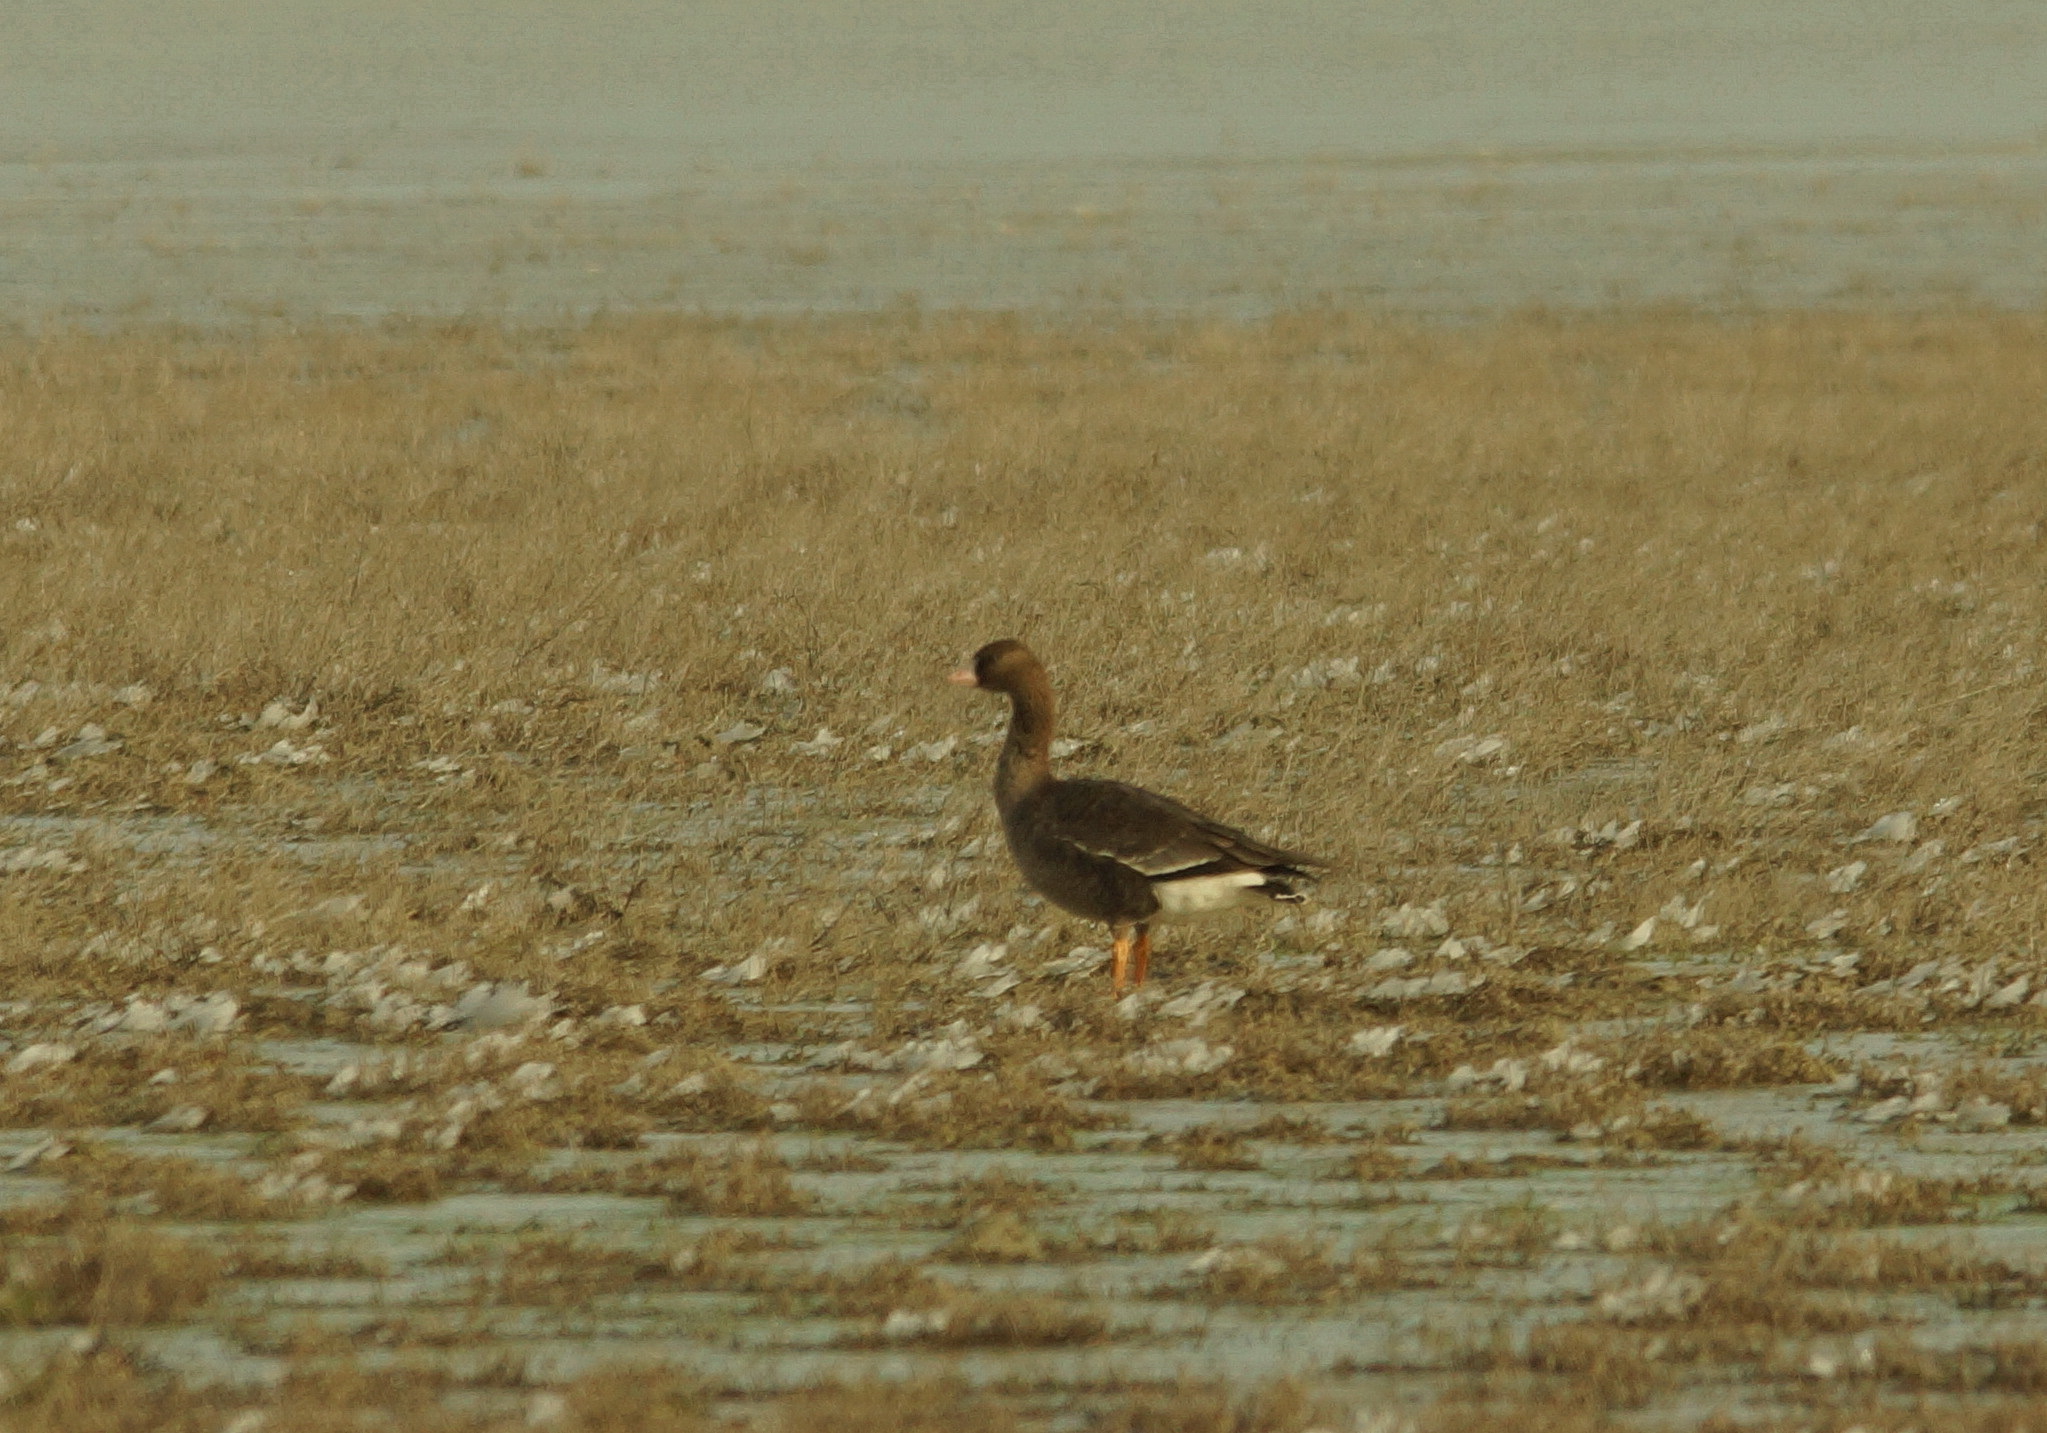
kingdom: Animalia
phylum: Chordata
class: Aves
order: Anseriformes
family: Anatidae
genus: Anser
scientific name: Anser albifrons
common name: Greater white-fronted goose
